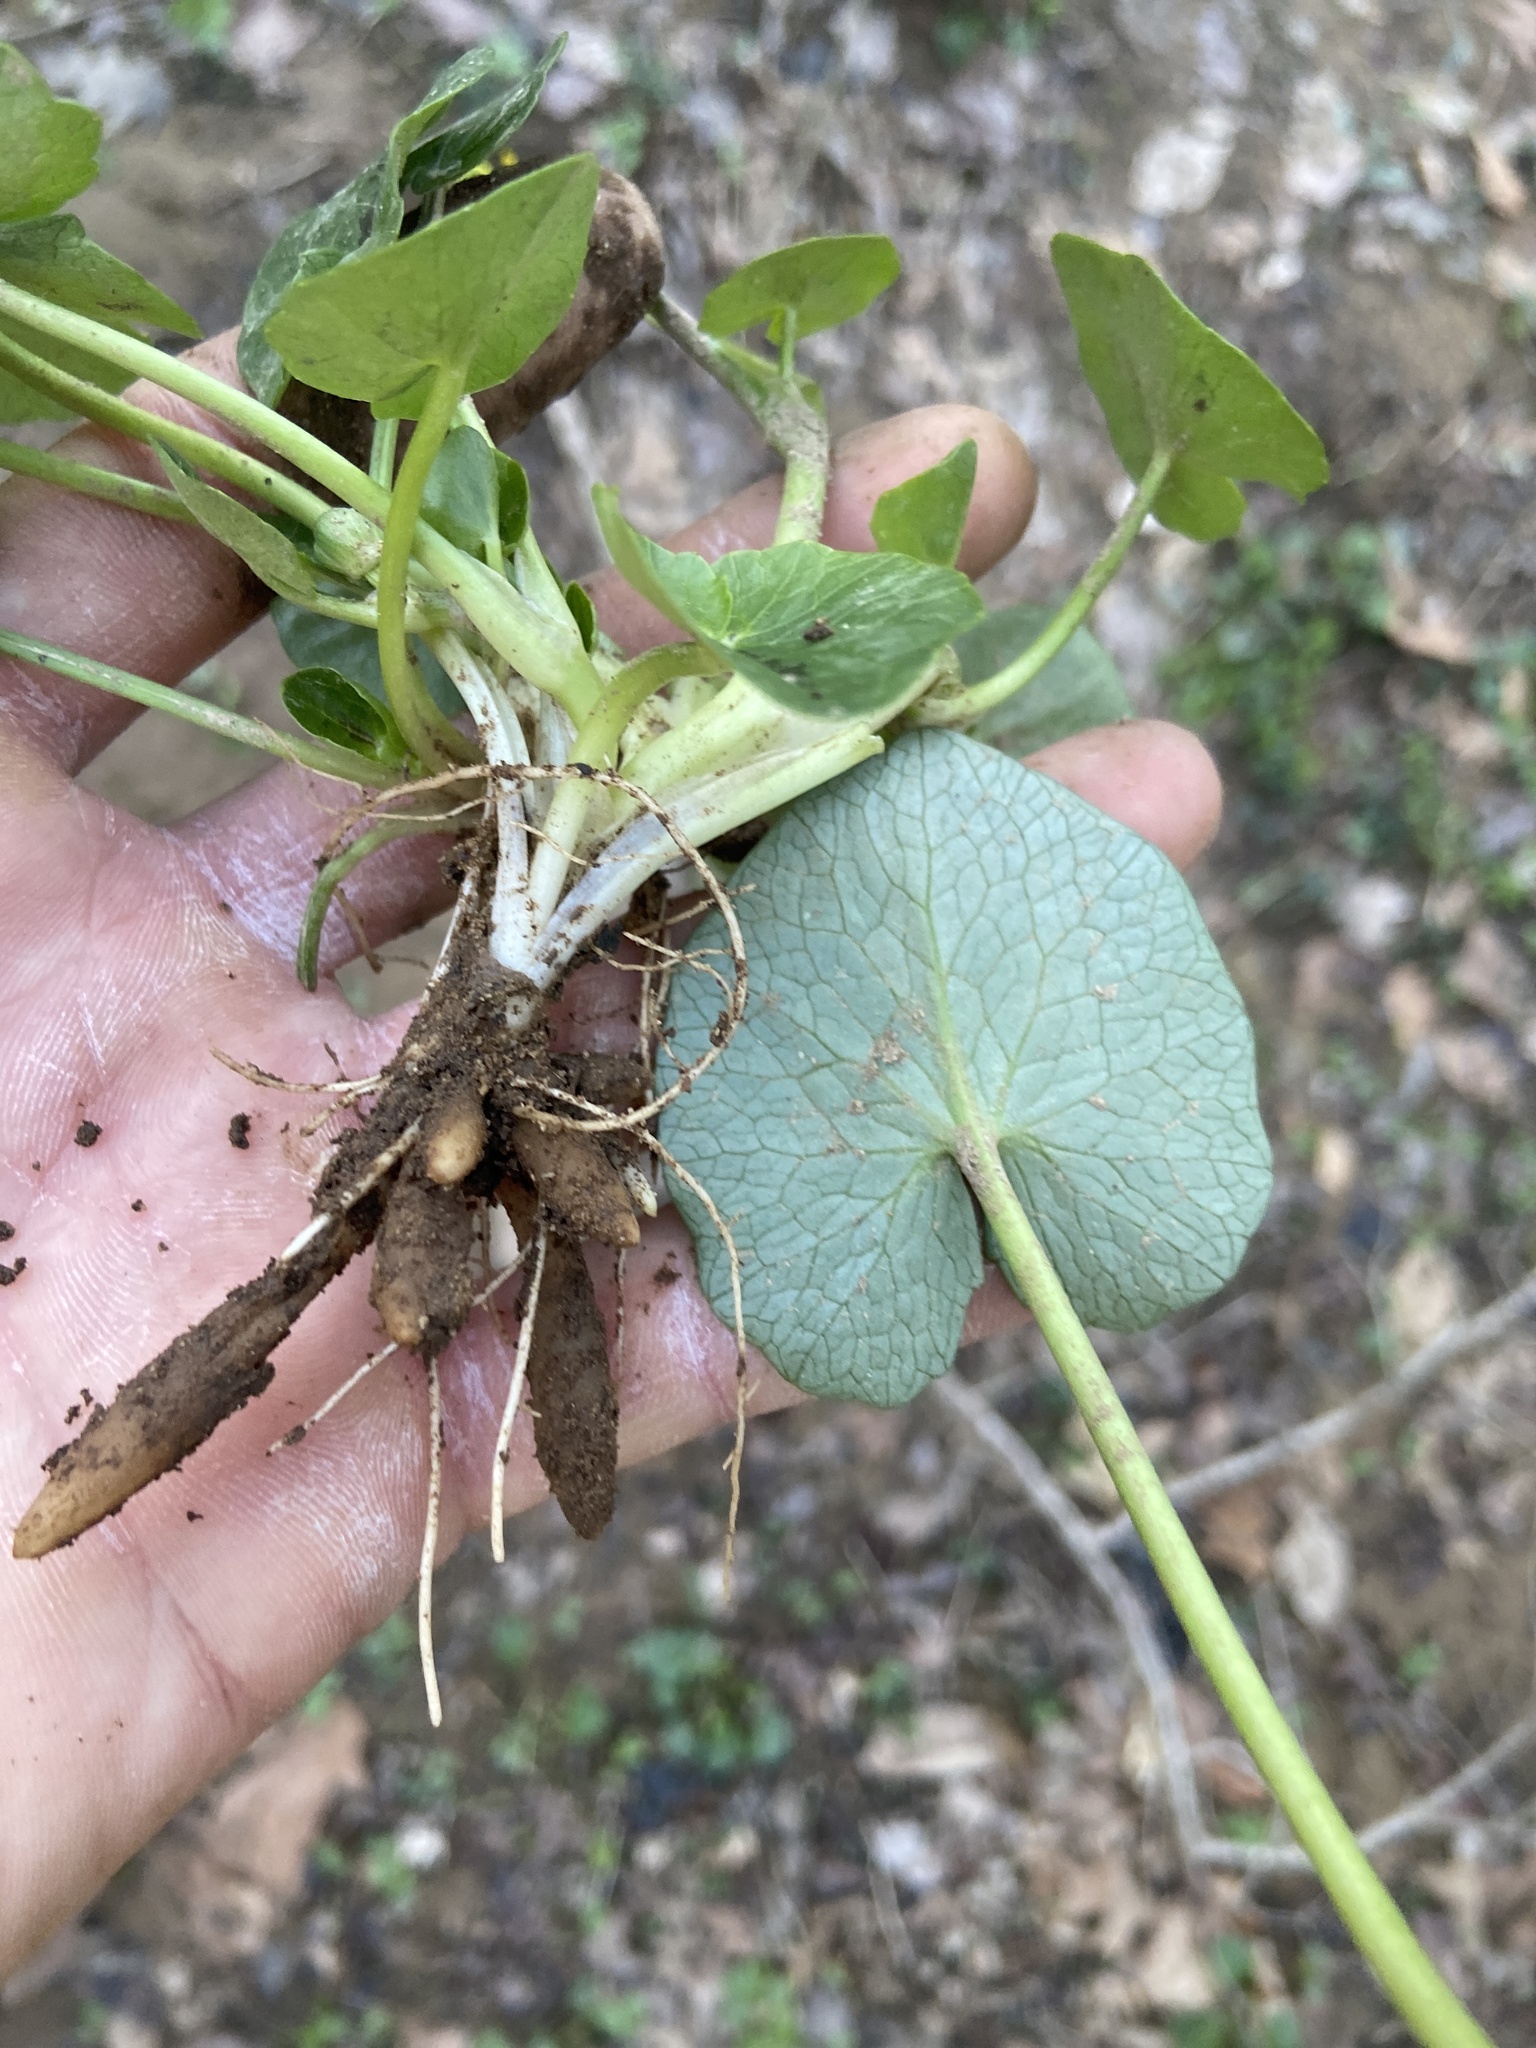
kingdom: Plantae
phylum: Tracheophyta
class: Magnoliopsida
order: Ranunculales
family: Ranunculaceae
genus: Ficaria
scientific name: Ficaria verna
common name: Lesser celandine
